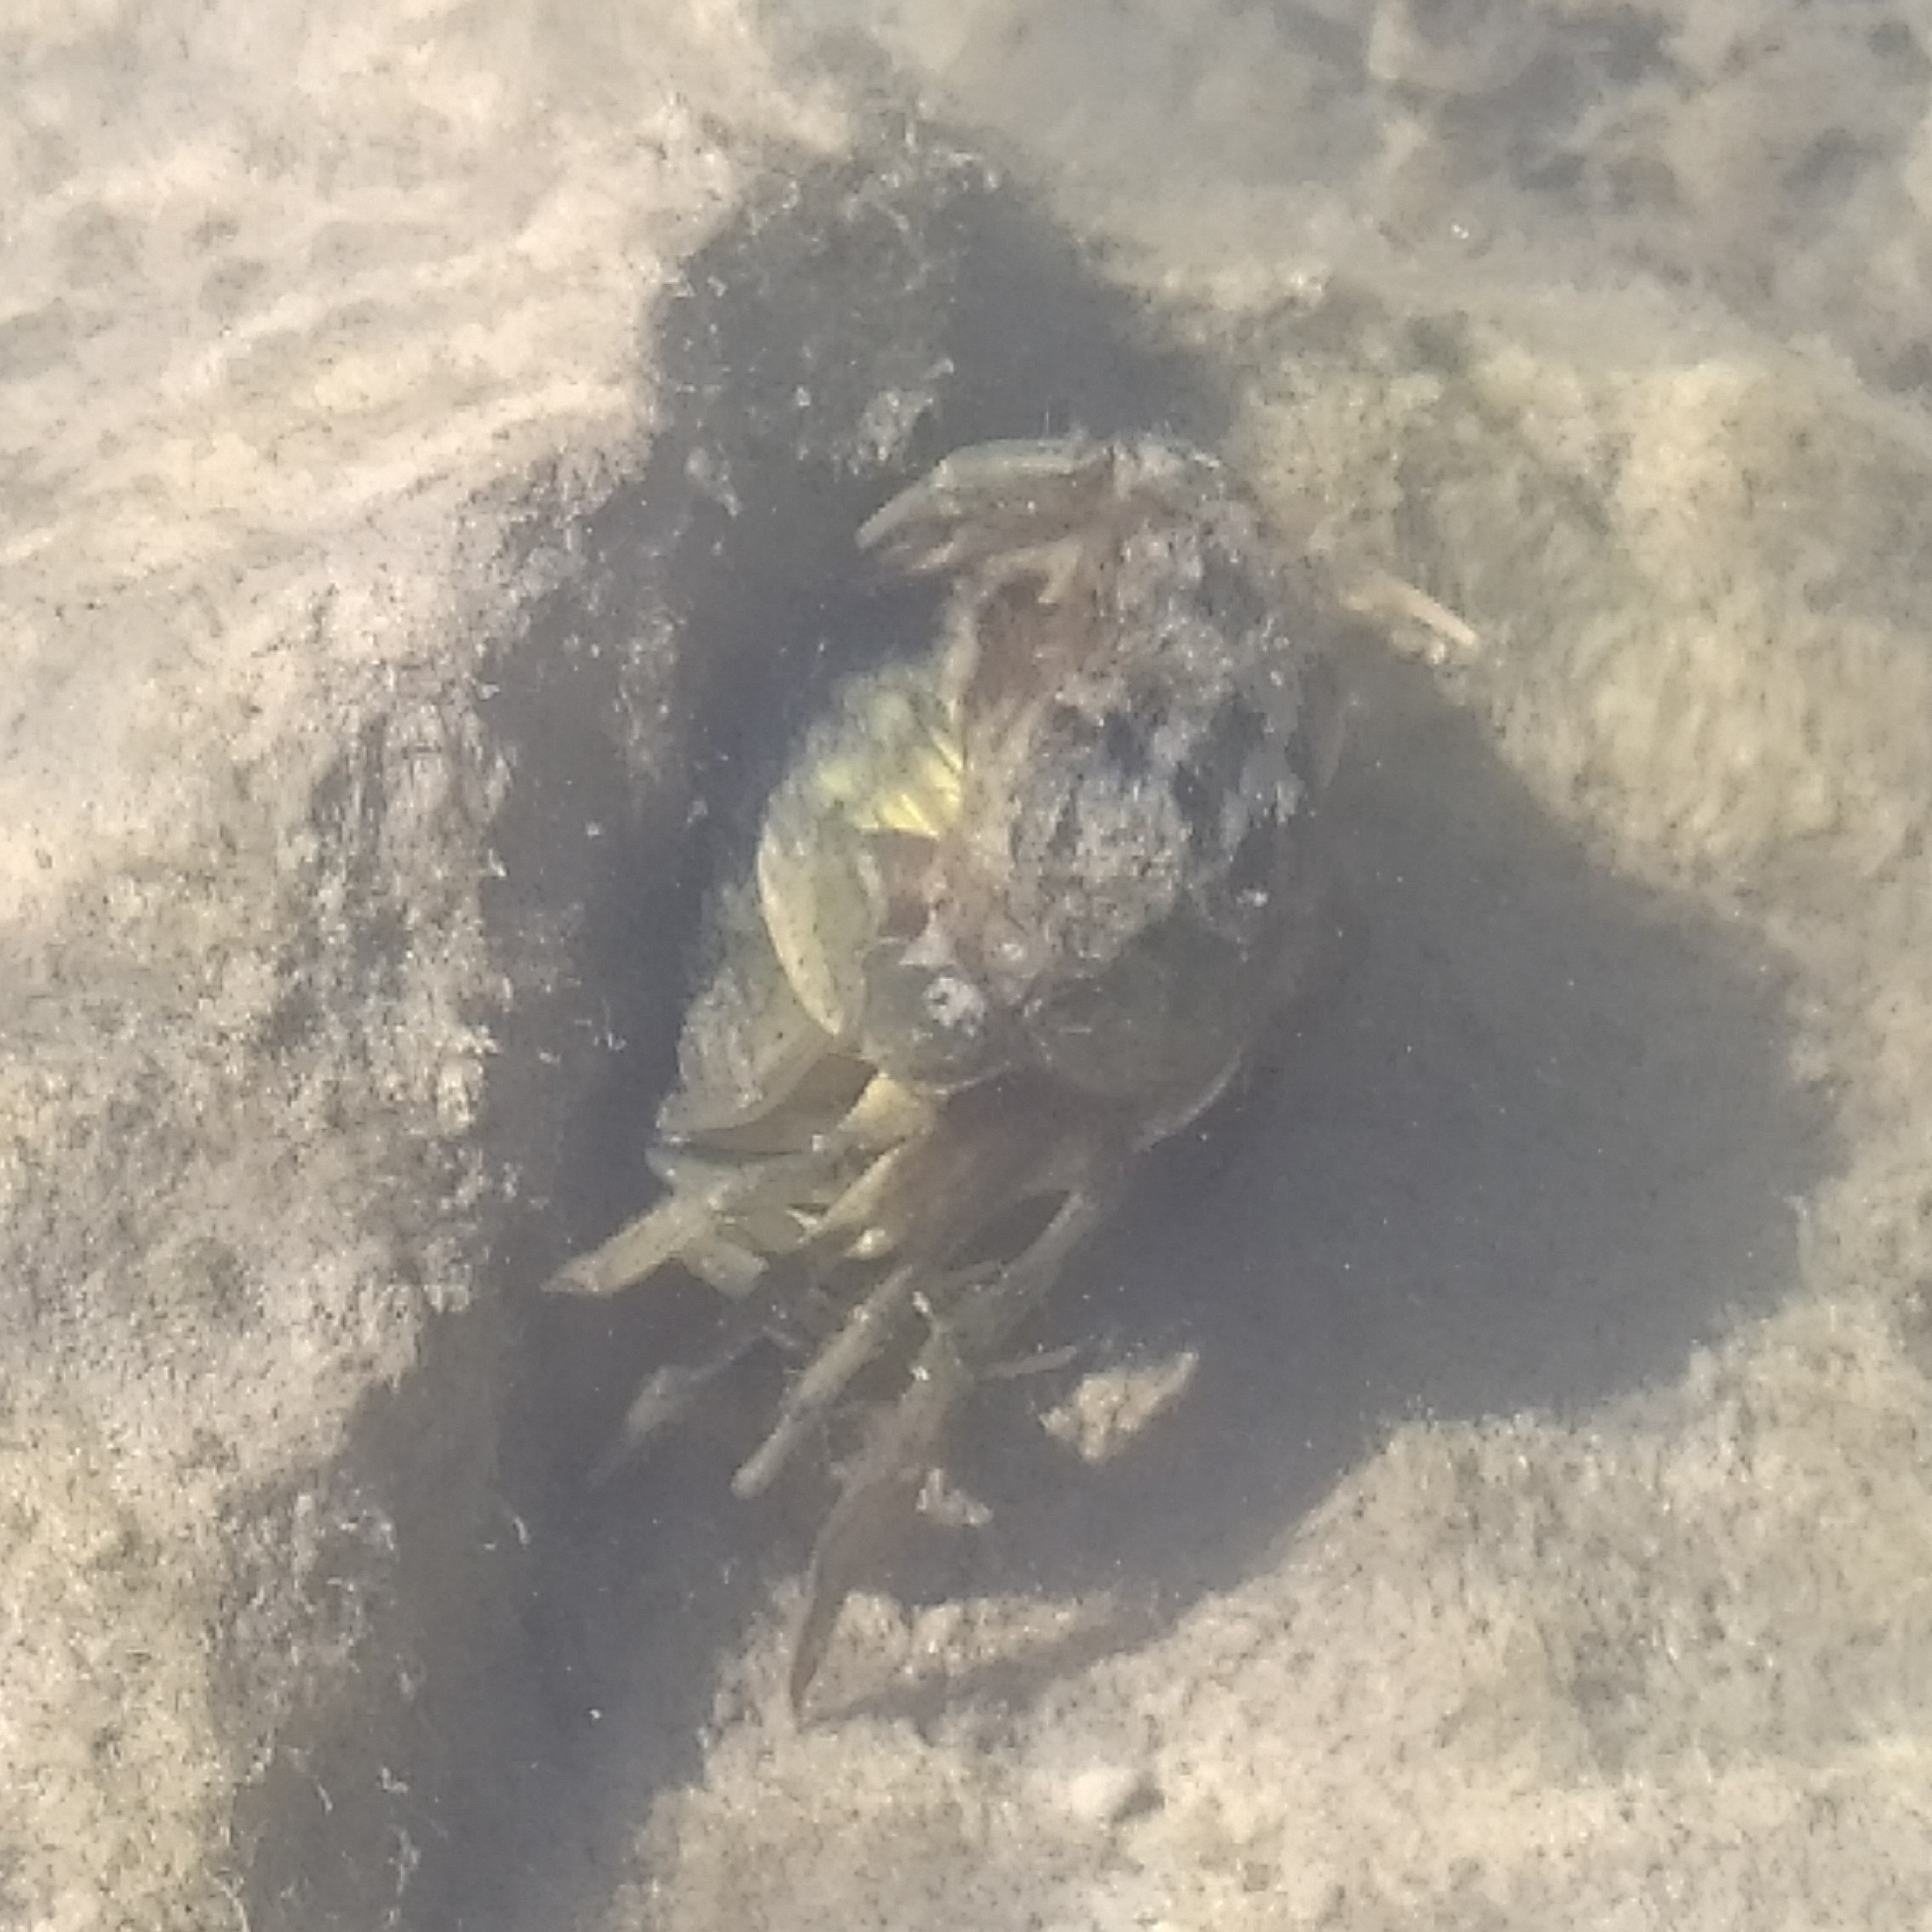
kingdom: Animalia
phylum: Arthropoda
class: Malacostraca
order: Decapoda
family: Carcinidae
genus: Carcinus
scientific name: Carcinus aestuarii
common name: Mediterranean green crab
